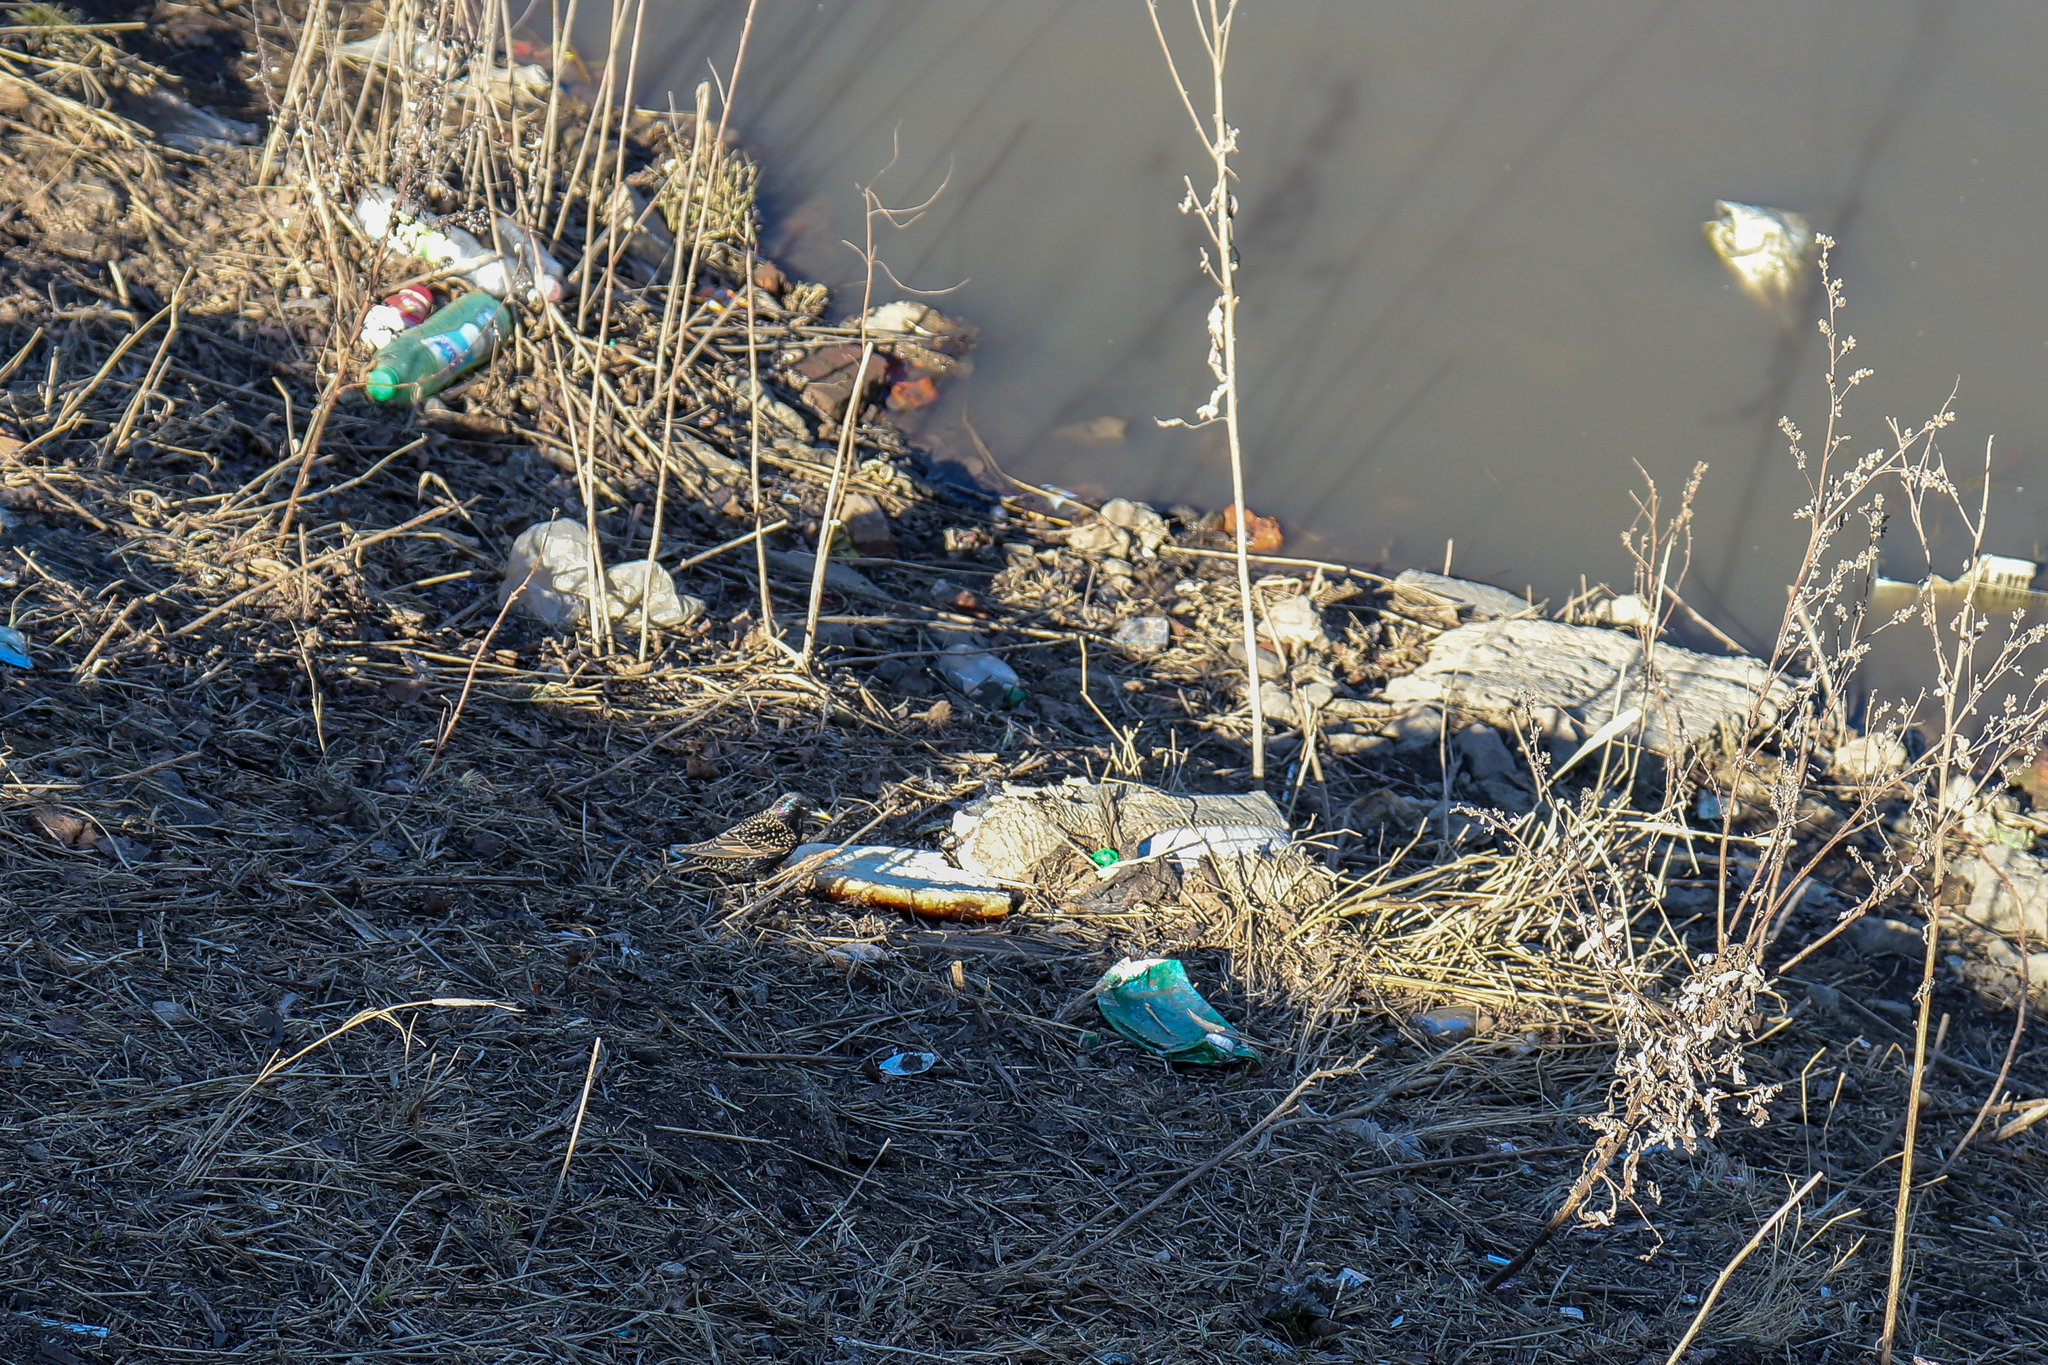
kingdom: Animalia
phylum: Chordata
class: Aves
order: Passeriformes
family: Sturnidae
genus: Sturnus
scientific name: Sturnus vulgaris
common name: Common starling
